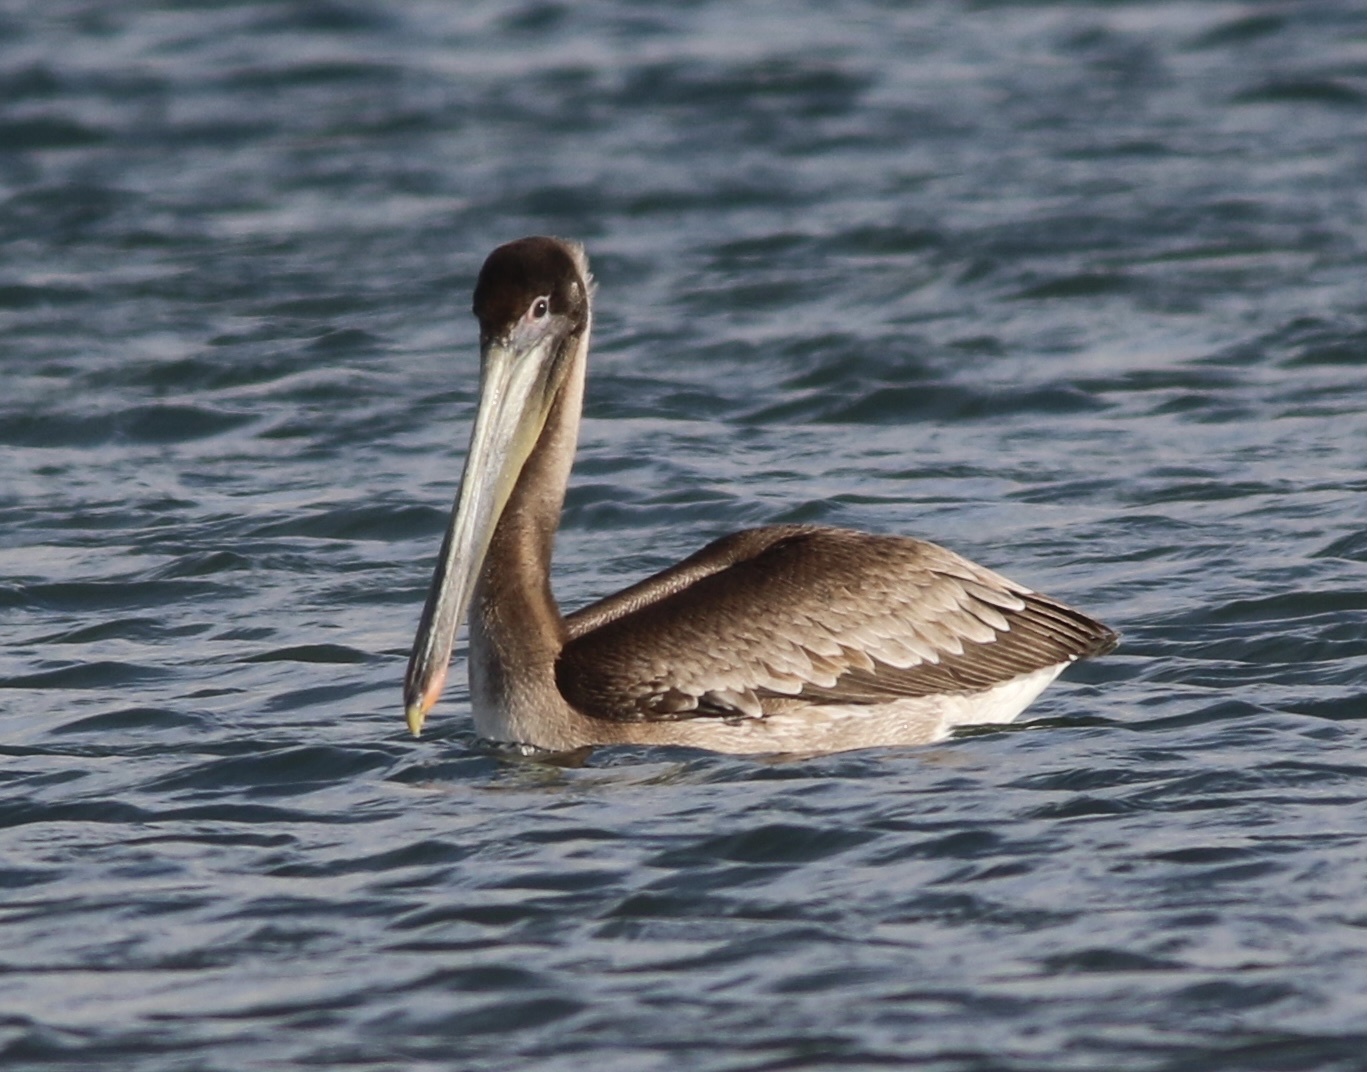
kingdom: Animalia
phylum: Chordata
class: Aves
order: Pelecaniformes
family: Pelecanidae
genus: Pelecanus
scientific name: Pelecanus occidentalis
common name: Brown pelican
